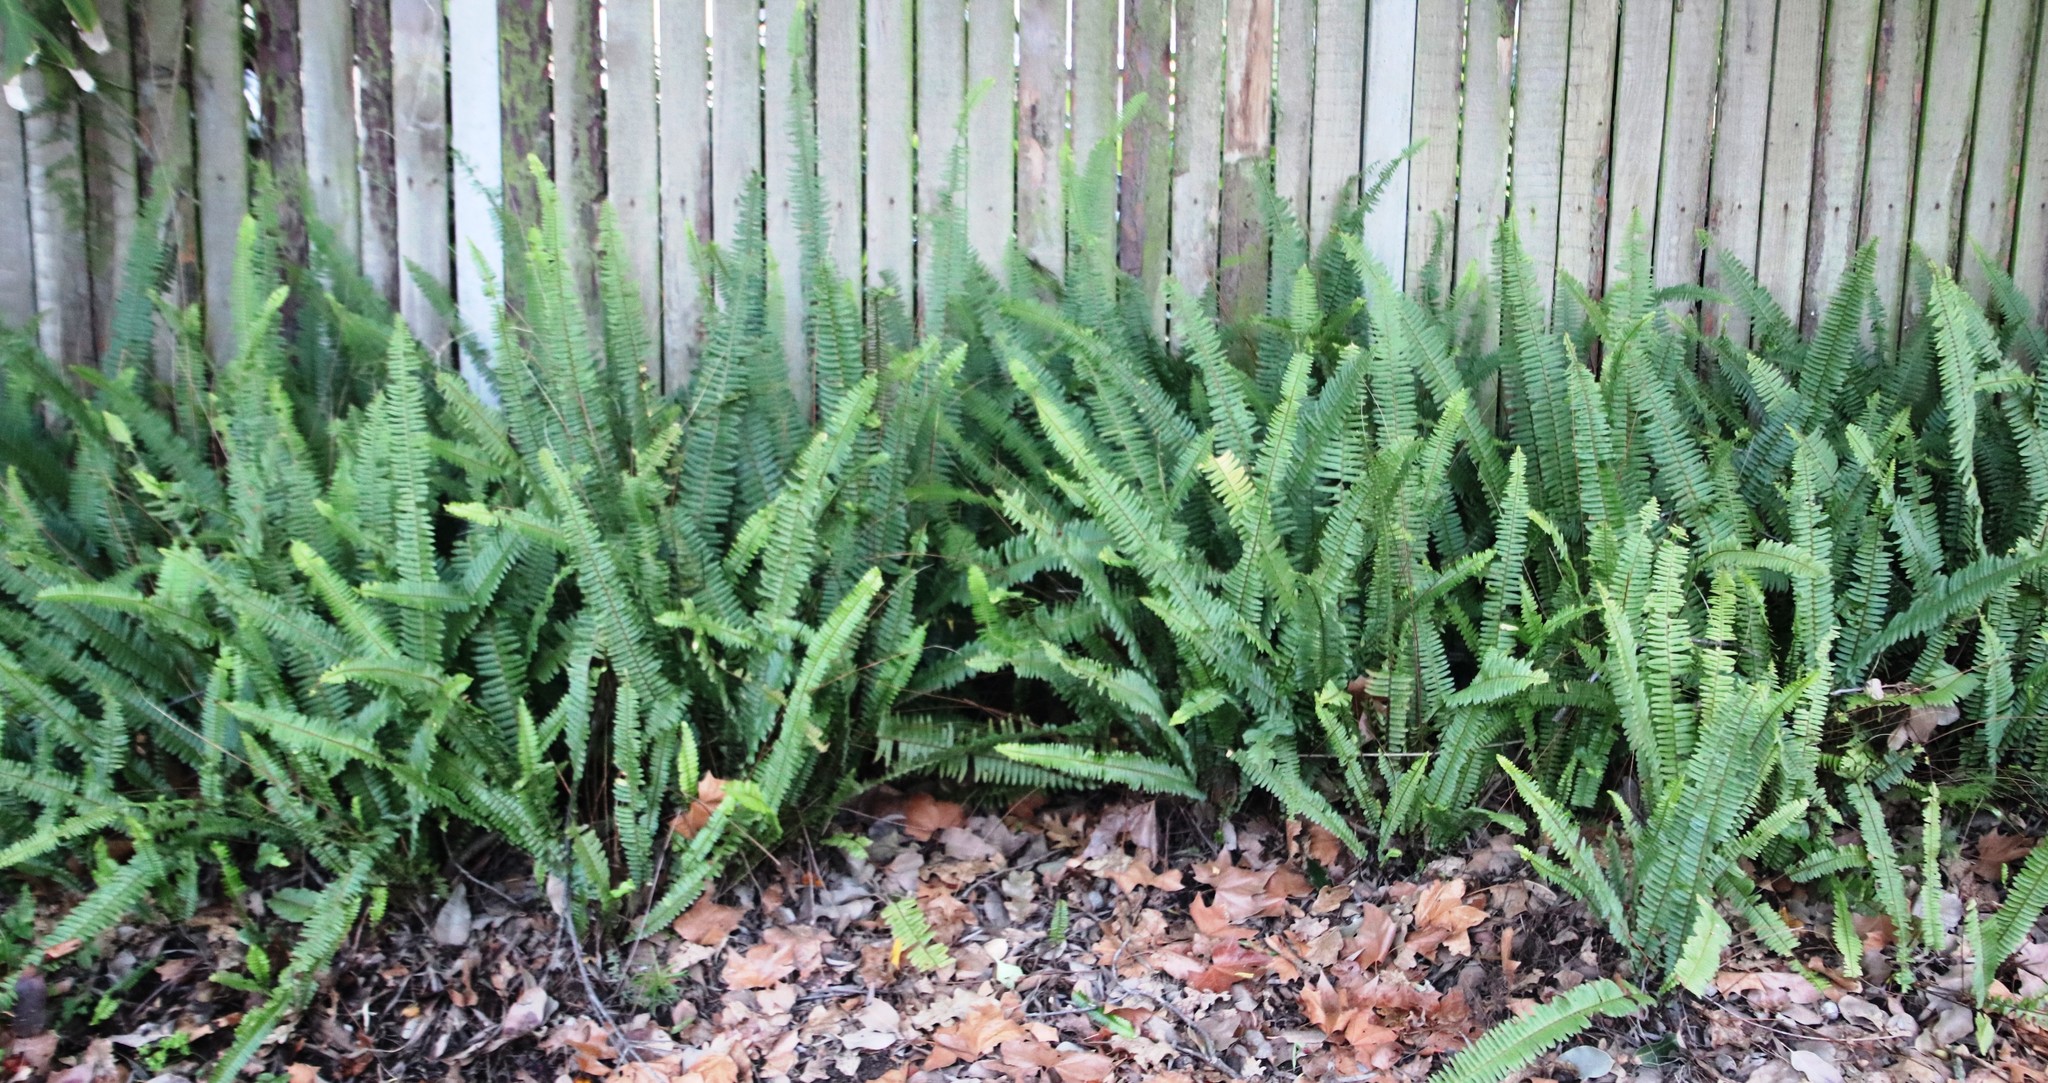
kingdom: Plantae
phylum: Tracheophyta
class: Polypodiopsida
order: Polypodiales
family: Nephrolepidaceae
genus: Nephrolepis
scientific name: Nephrolepis cordifolia
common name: Narrow swordfern
